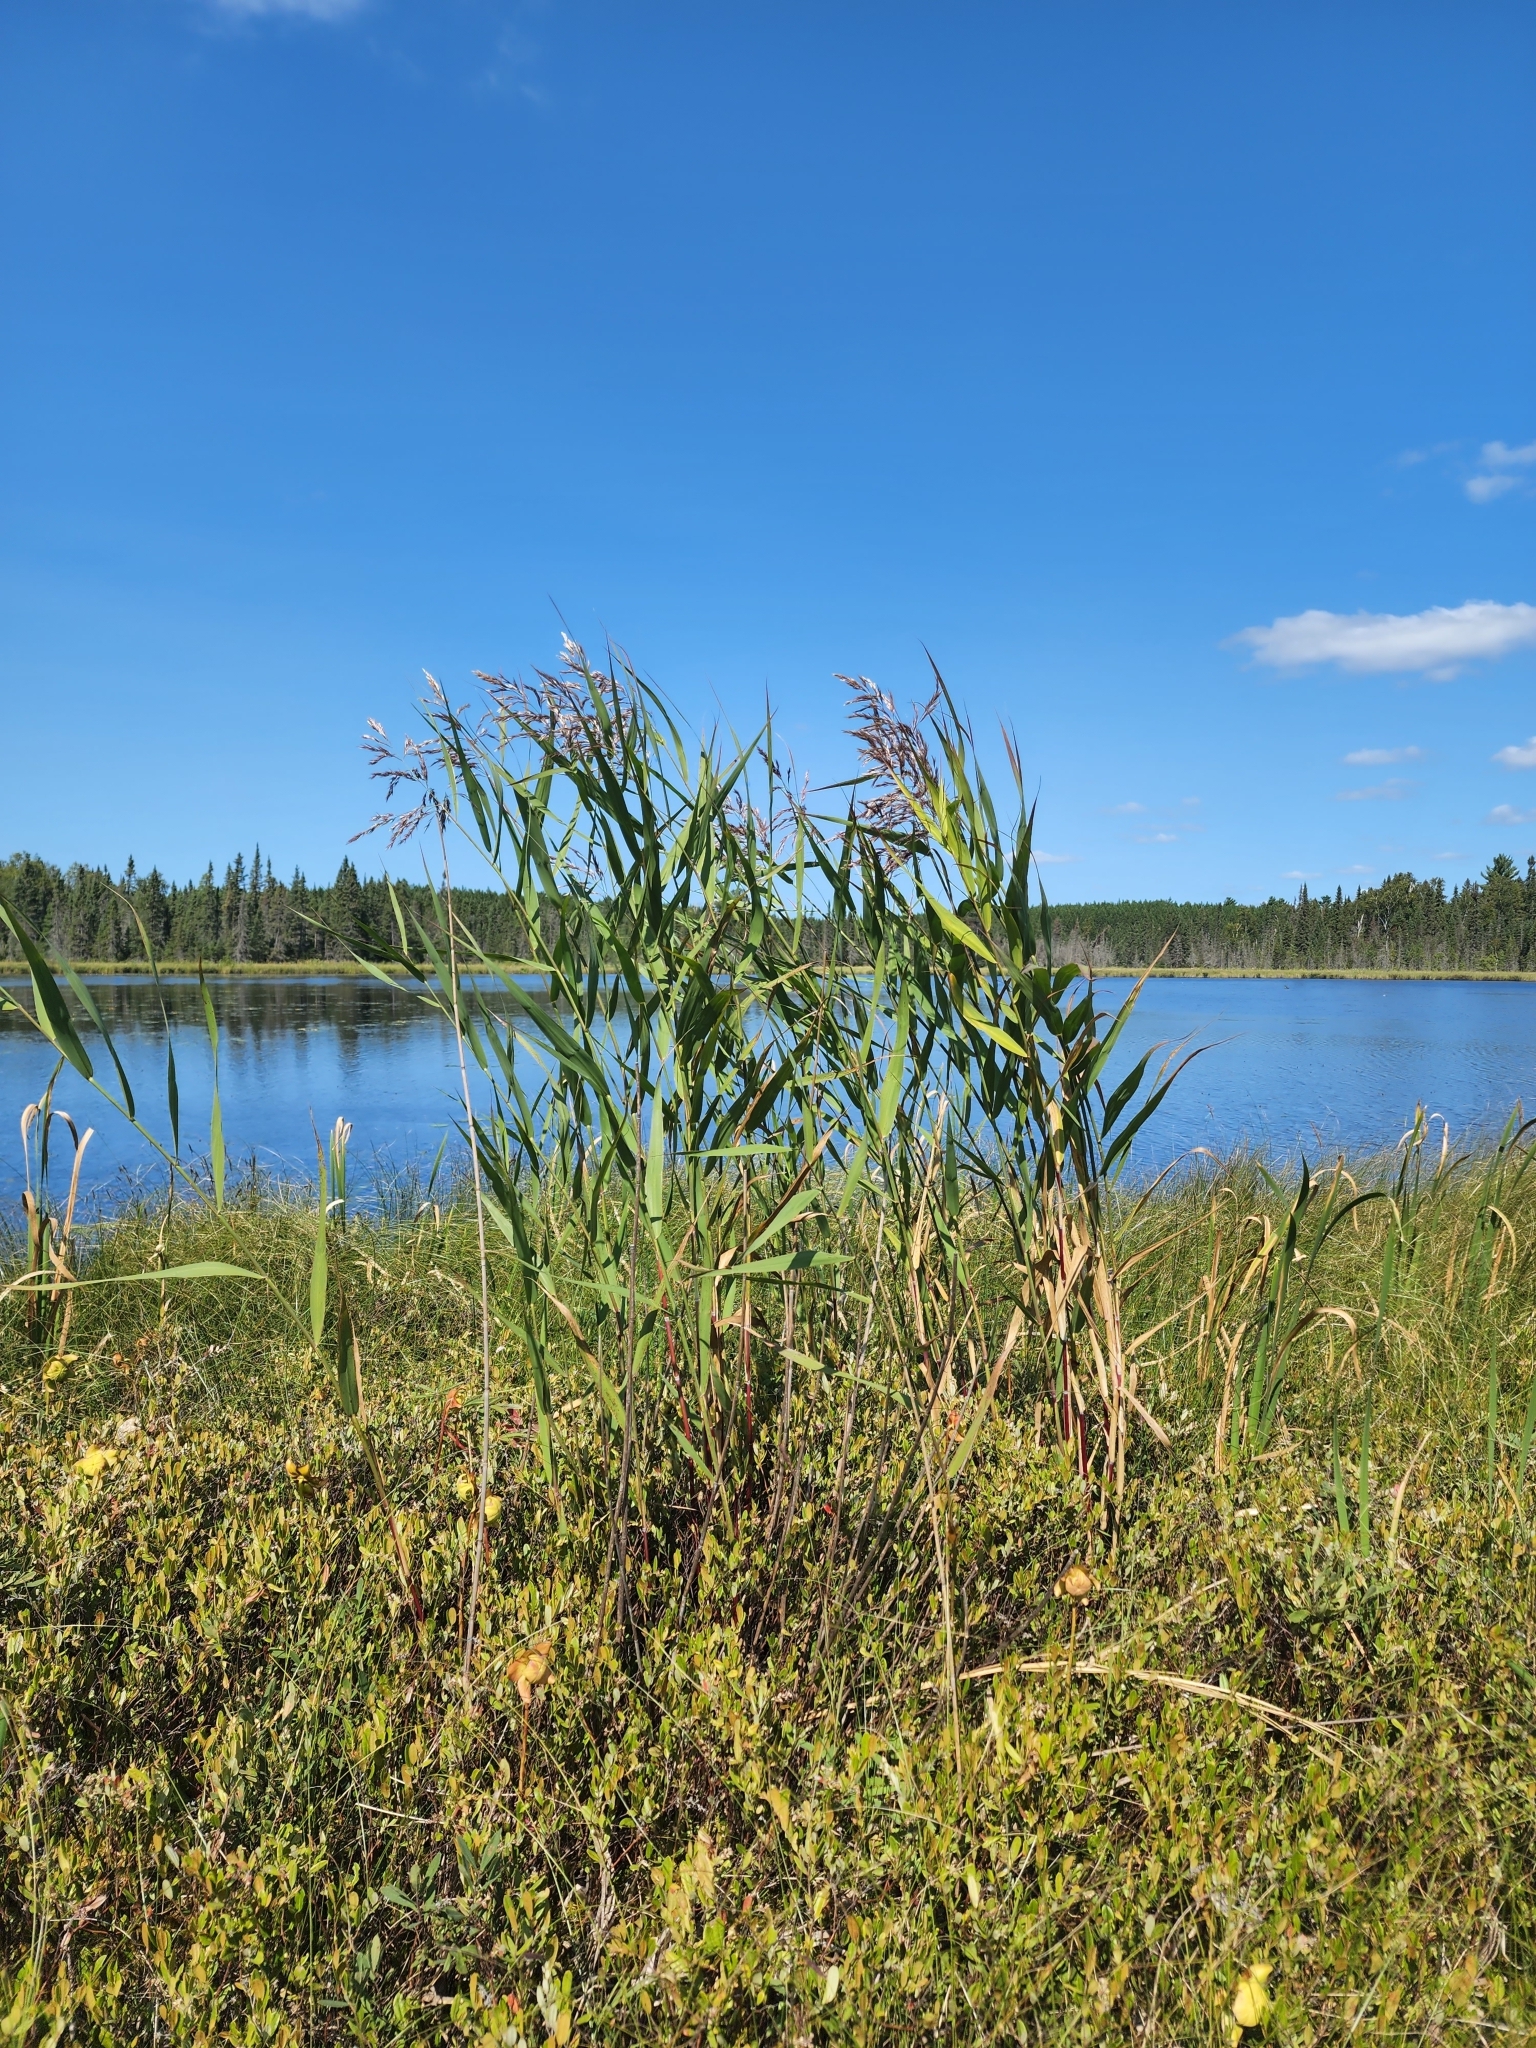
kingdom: Plantae
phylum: Tracheophyta
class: Liliopsida
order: Poales
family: Poaceae
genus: Phragmites
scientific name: Phragmites australis
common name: Common reed
